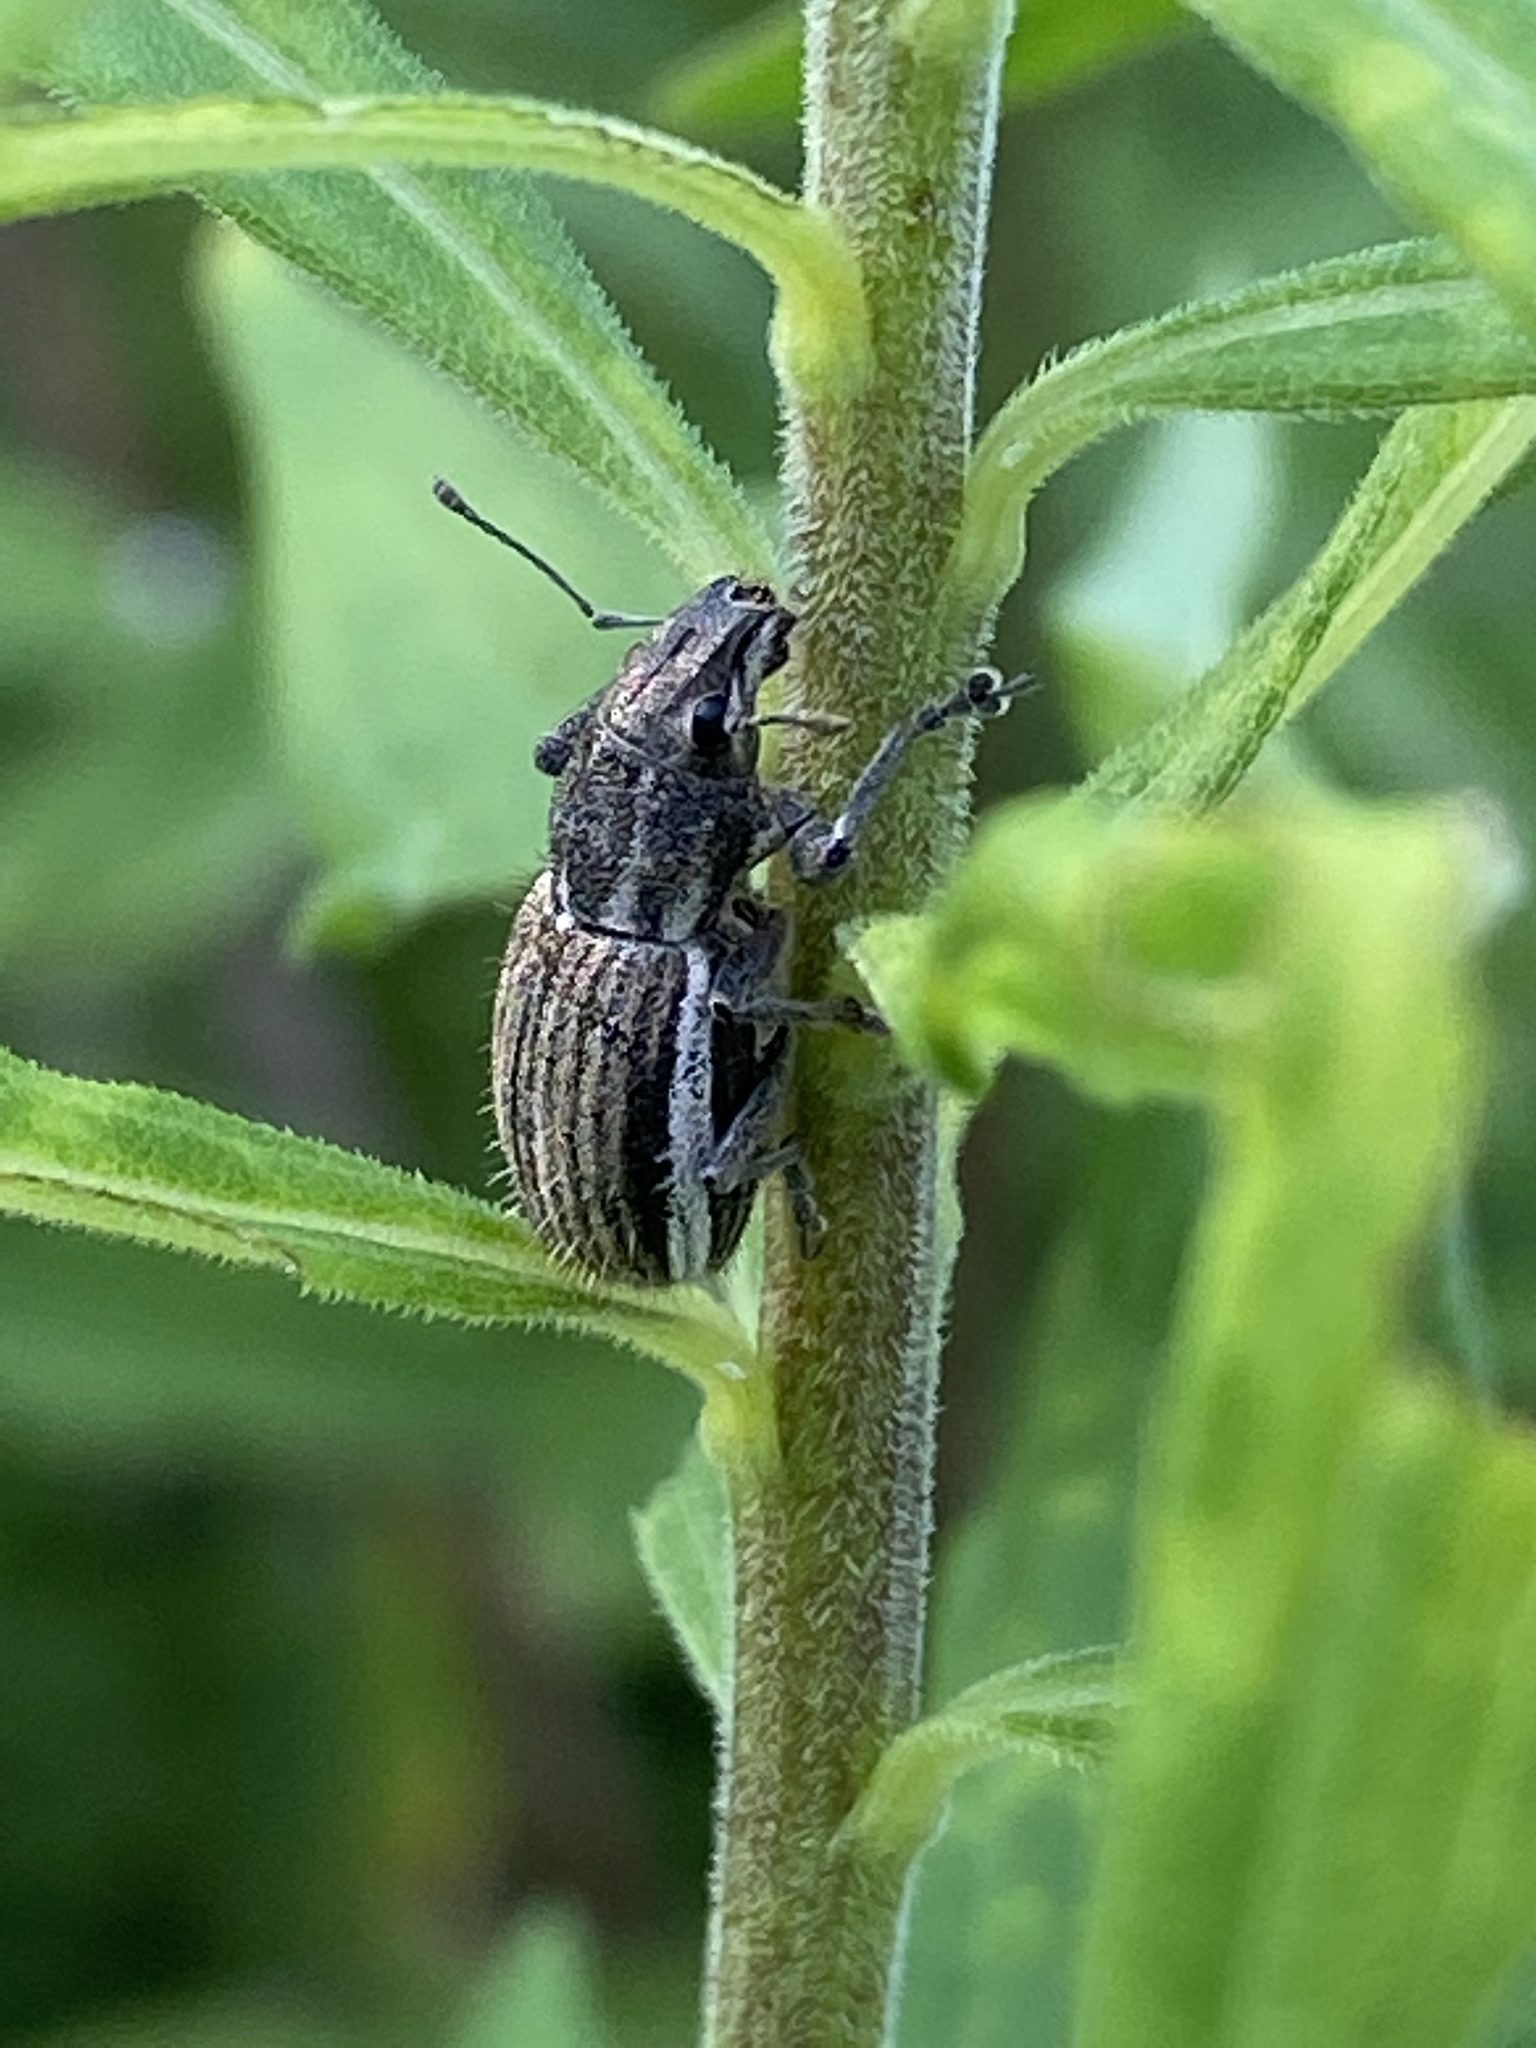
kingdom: Animalia
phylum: Arthropoda
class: Insecta
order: Coleoptera
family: Curculionidae
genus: Naupactus
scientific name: Naupactus leucoloma
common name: Whitefringed beetle
